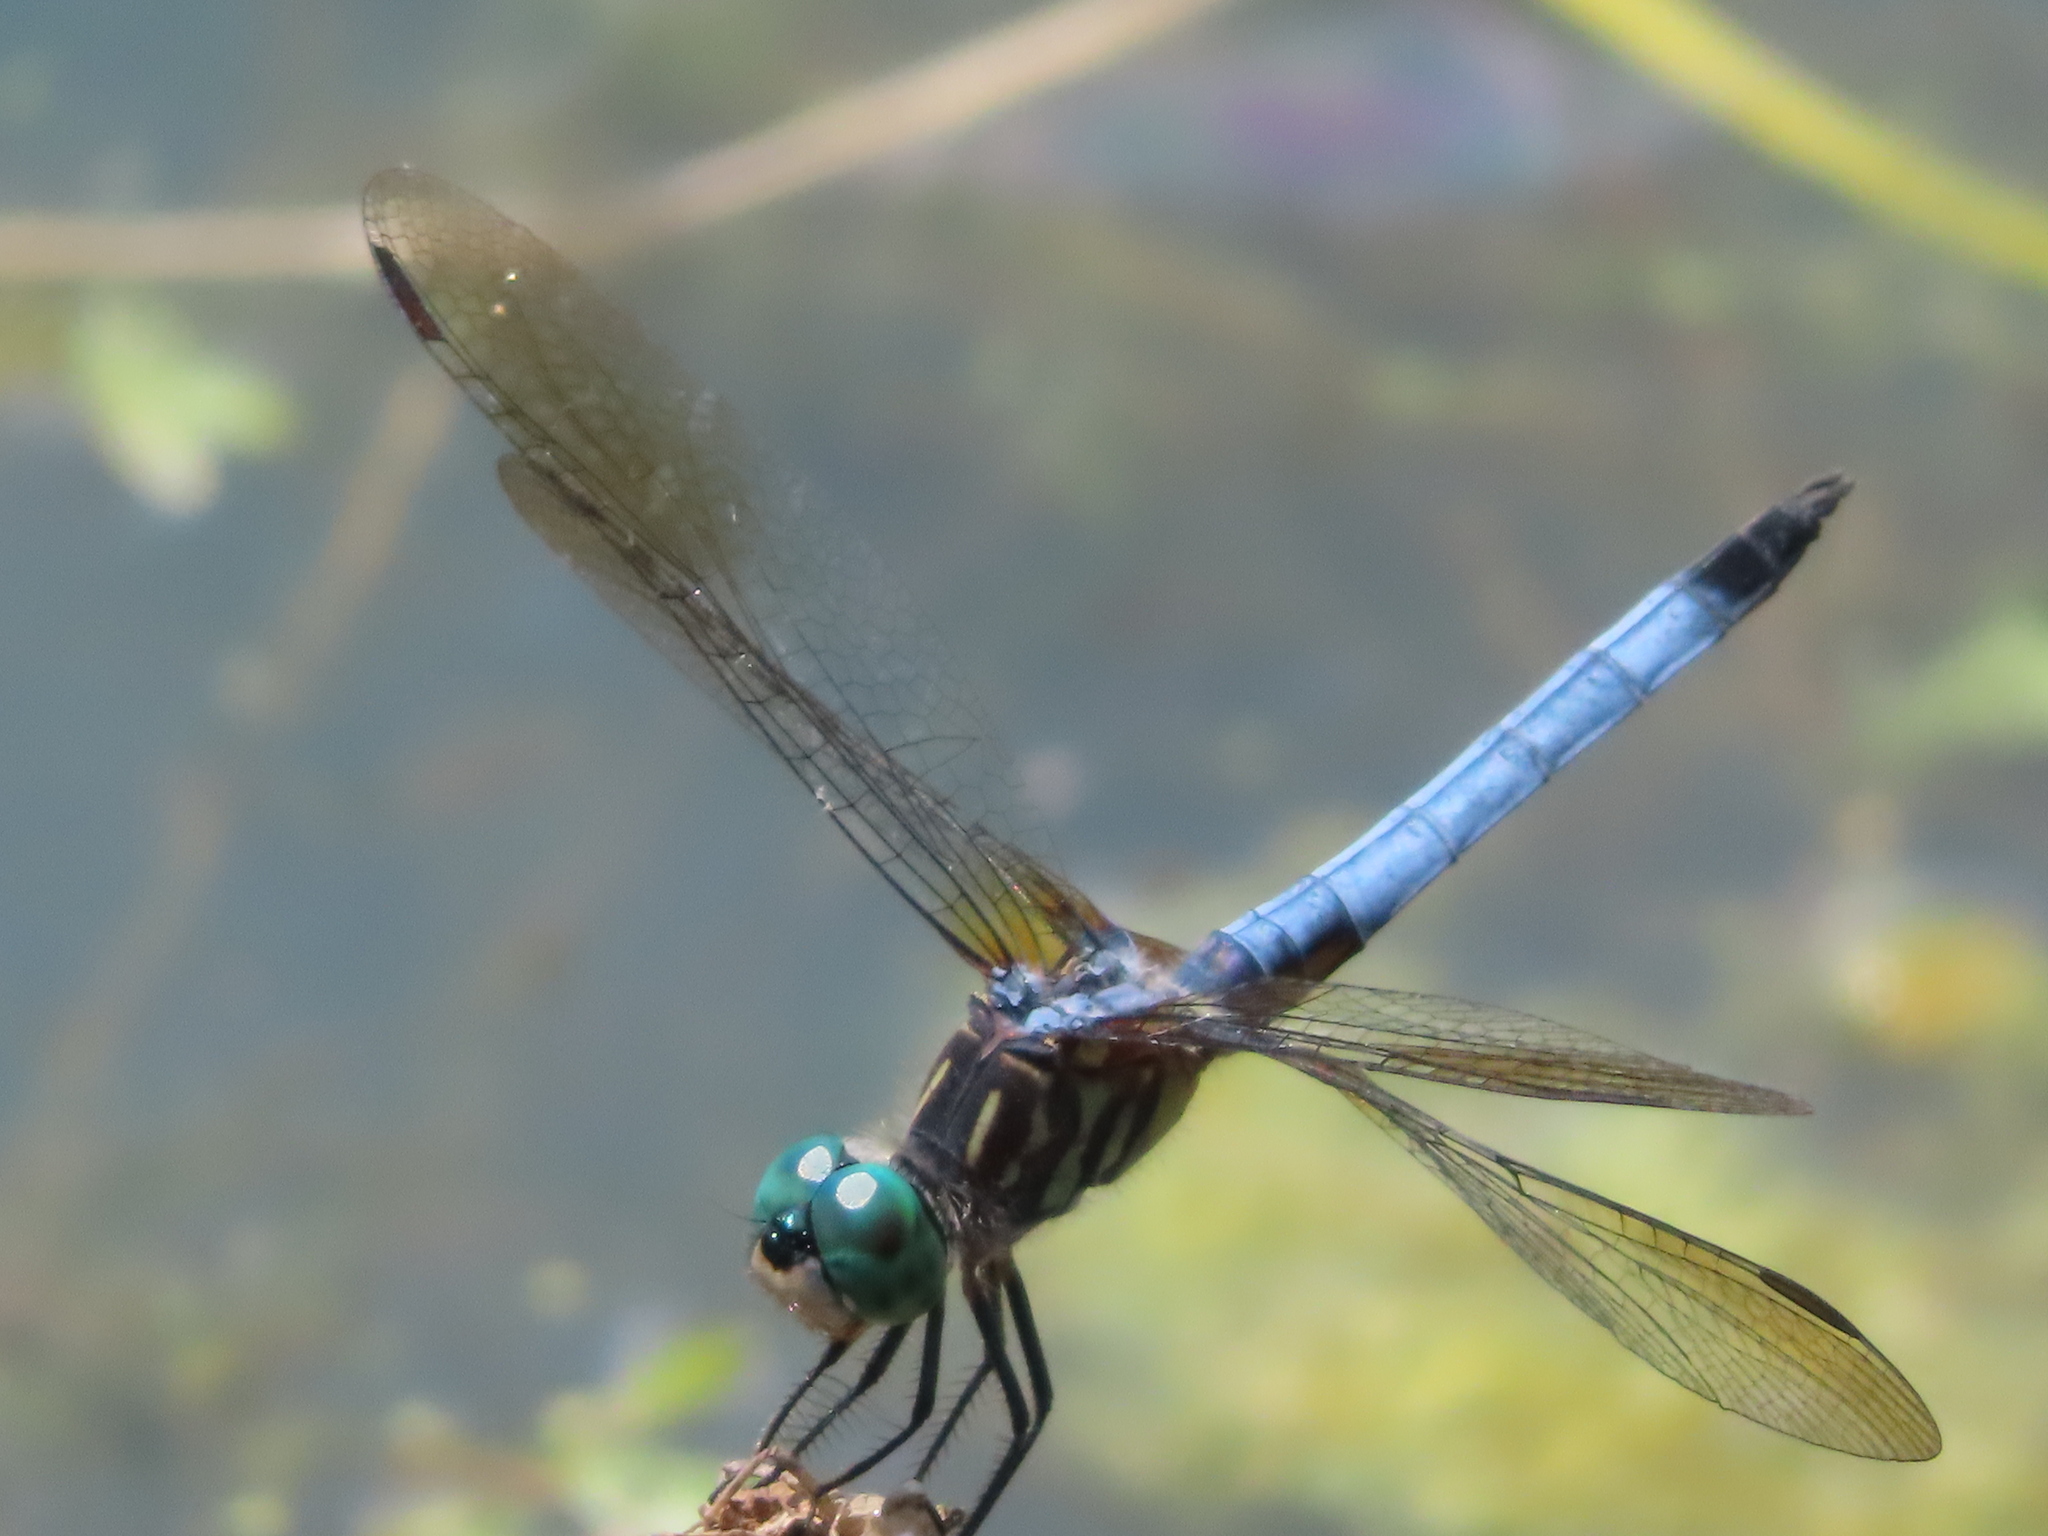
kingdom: Animalia
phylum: Arthropoda
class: Insecta
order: Odonata
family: Libellulidae
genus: Pachydiplax
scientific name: Pachydiplax longipennis
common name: Blue dasher
